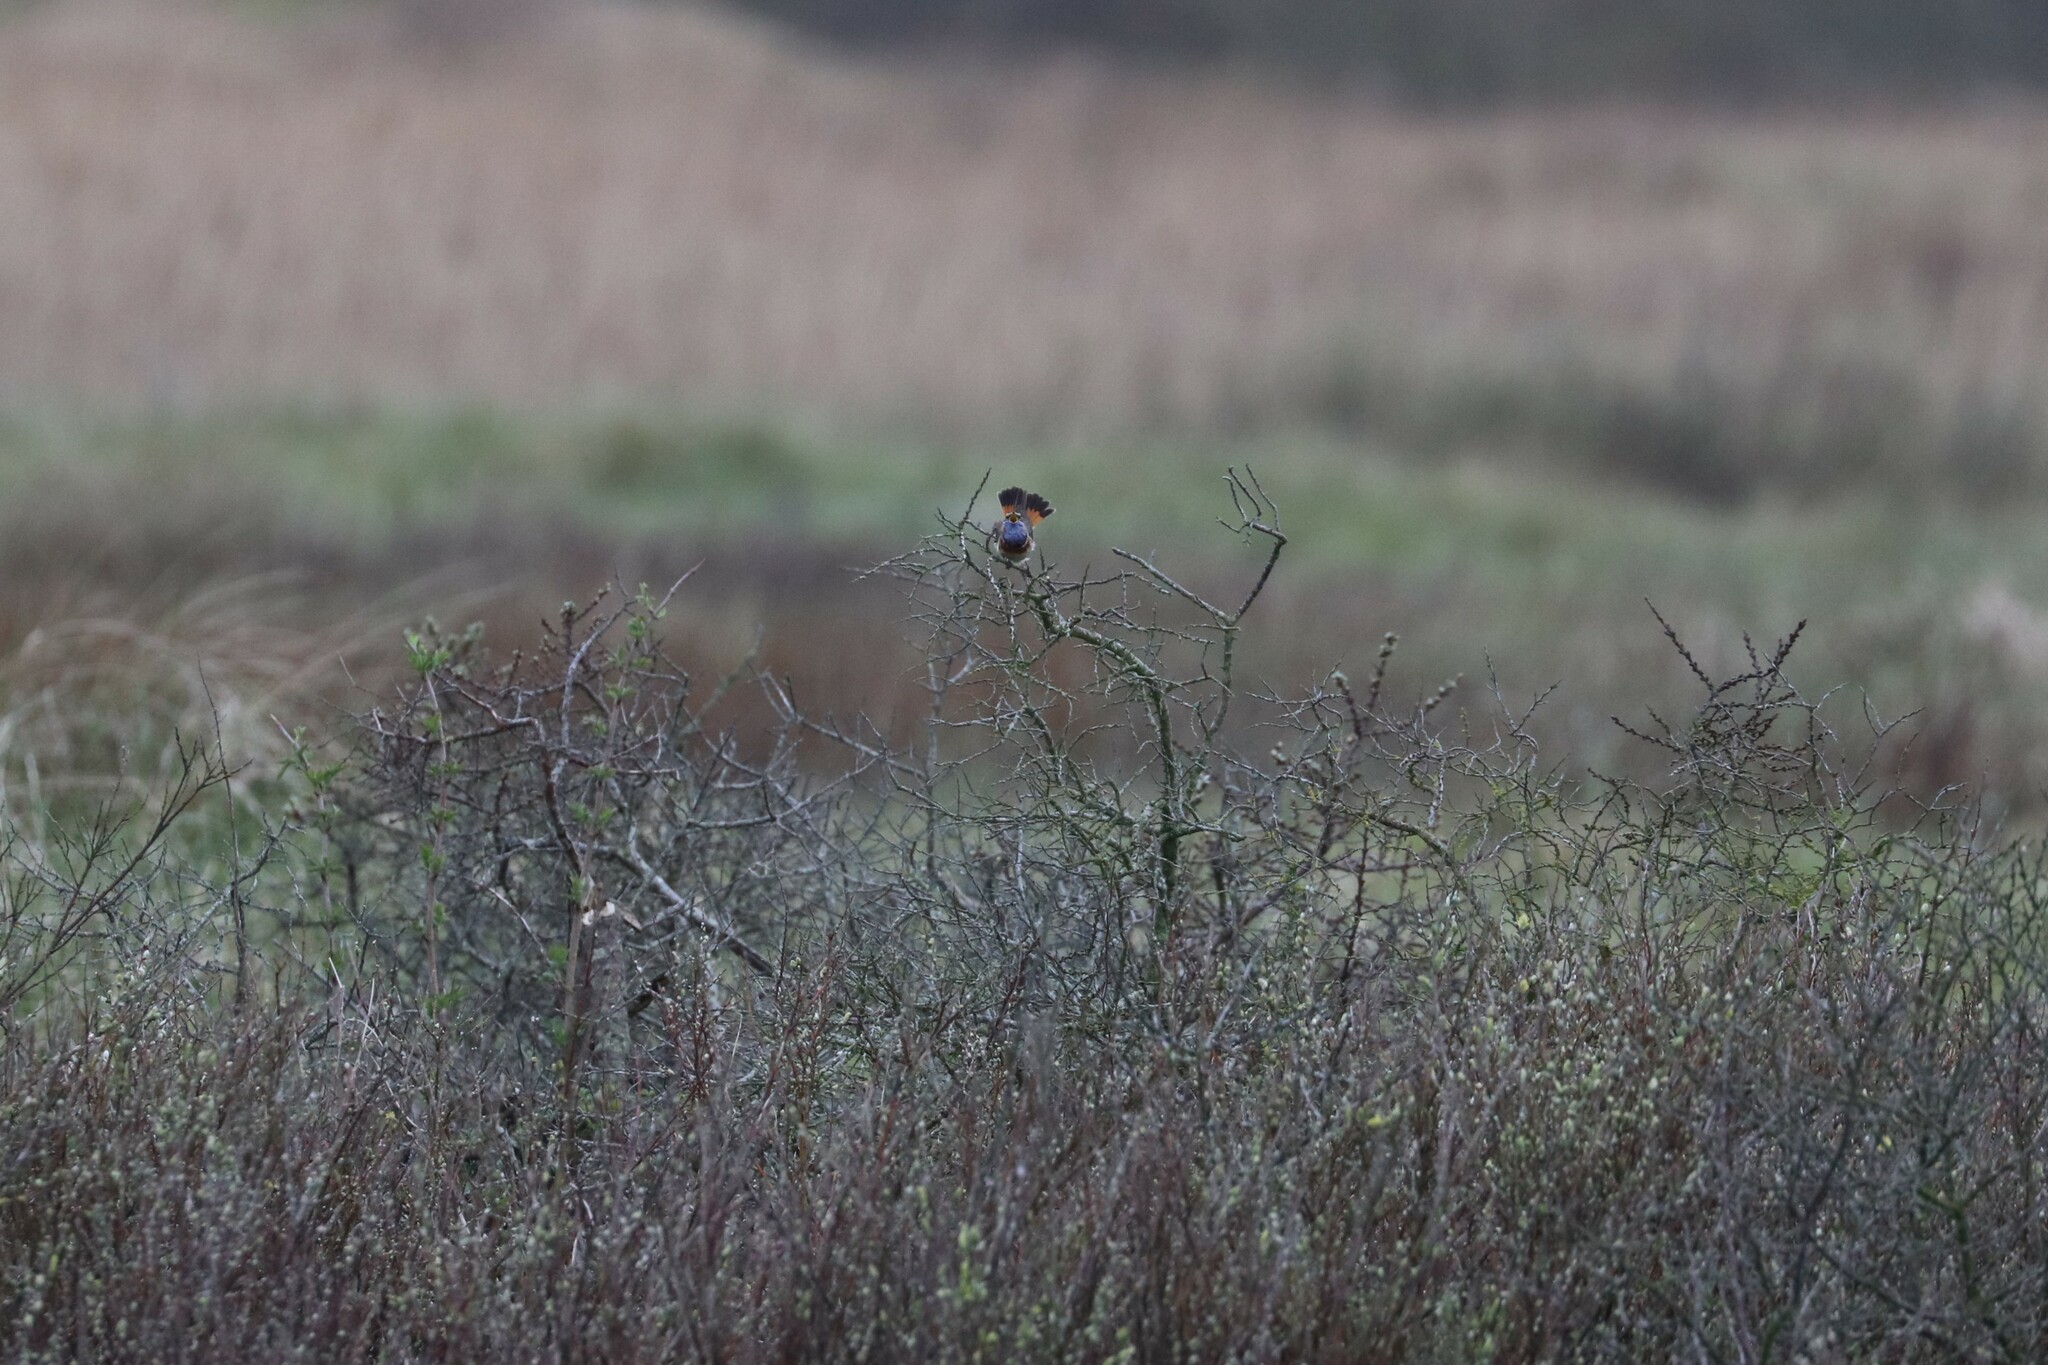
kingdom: Animalia
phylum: Chordata
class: Aves
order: Passeriformes
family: Muscicapidae
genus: Luscinia
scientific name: Luscinia svecica
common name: Bluethroat
